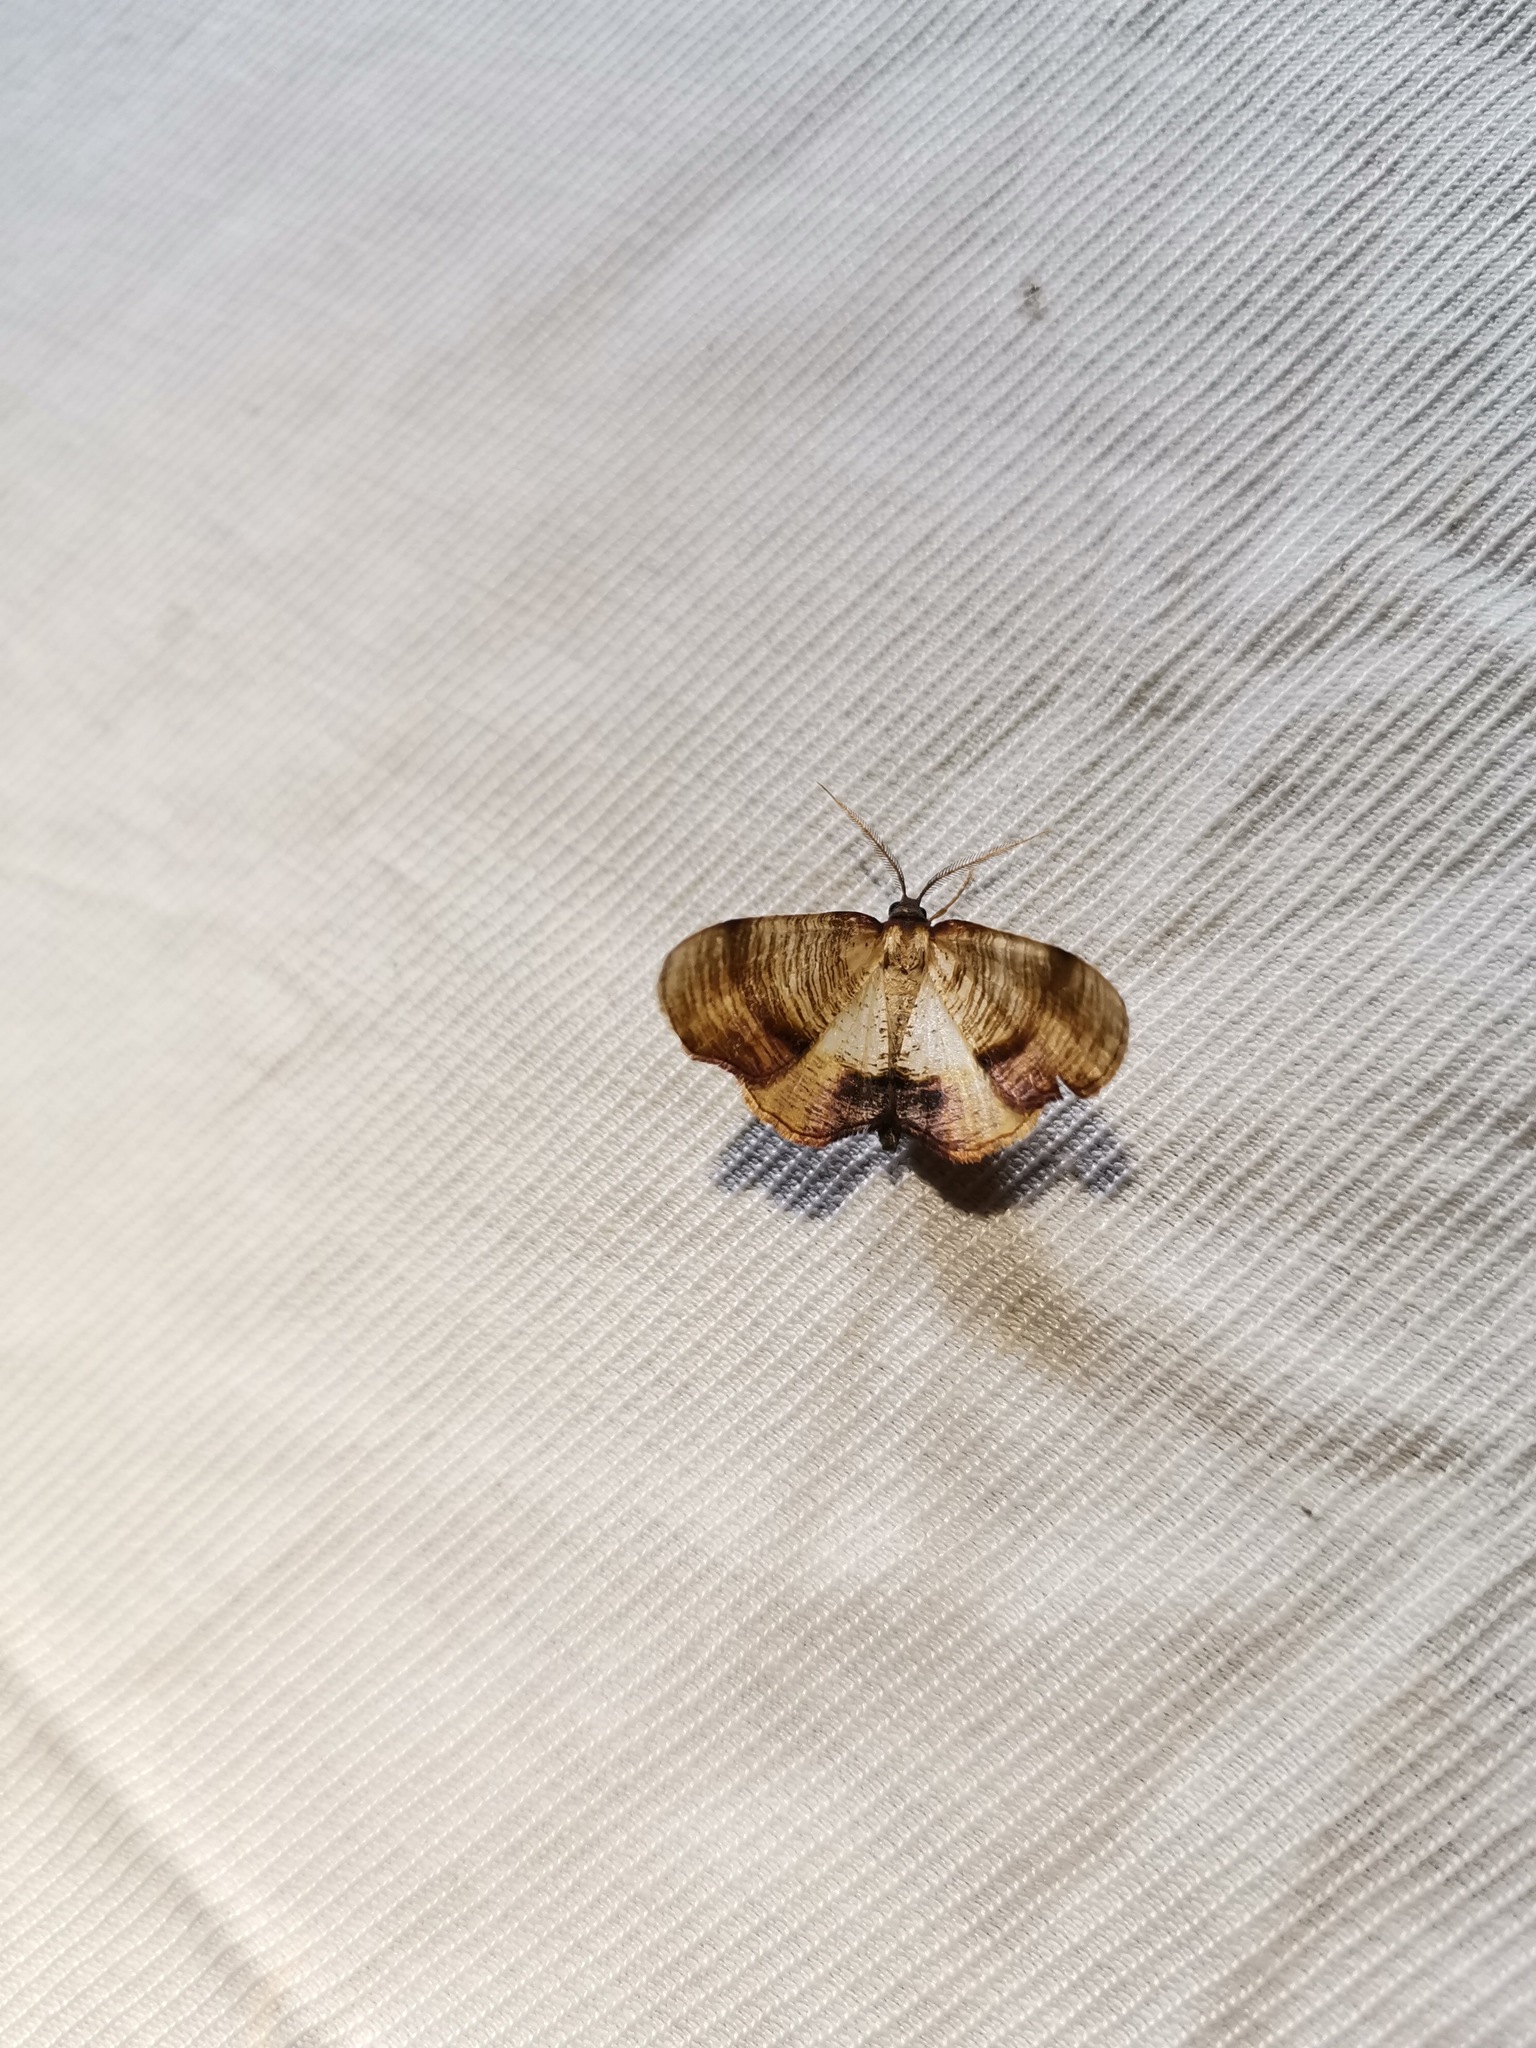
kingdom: Animalia
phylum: Arthropoda
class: Insecta
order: Lepidoptera
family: Geometridae
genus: Plagodis
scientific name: Plagodis dolabraria
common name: Scorched wing
